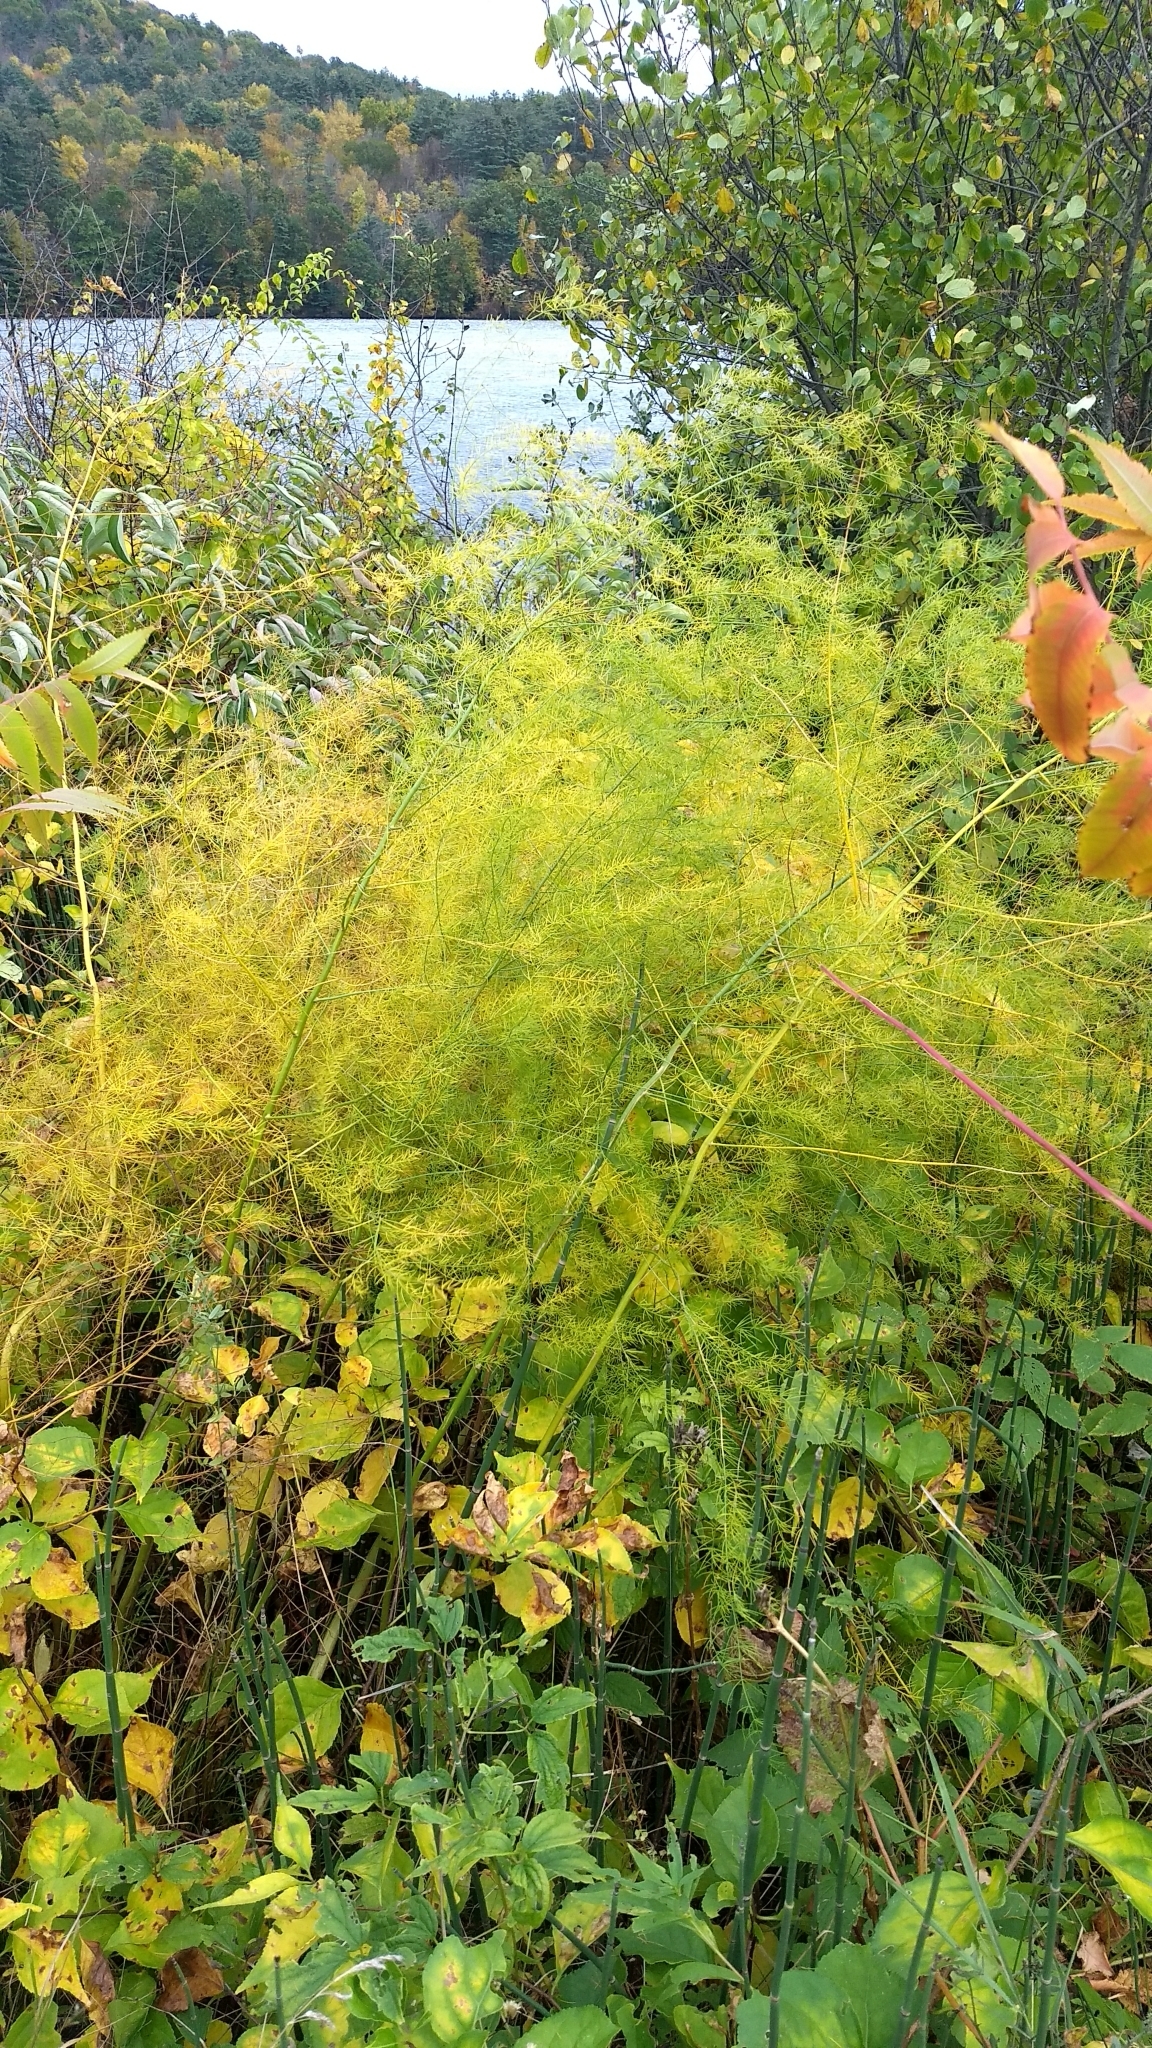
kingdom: Plantae
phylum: Tracheophyta
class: Liliopsida
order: Asparagales
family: Asparagaceae
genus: Asparagus
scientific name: Asparagus officinalis
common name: Garden asparagus
